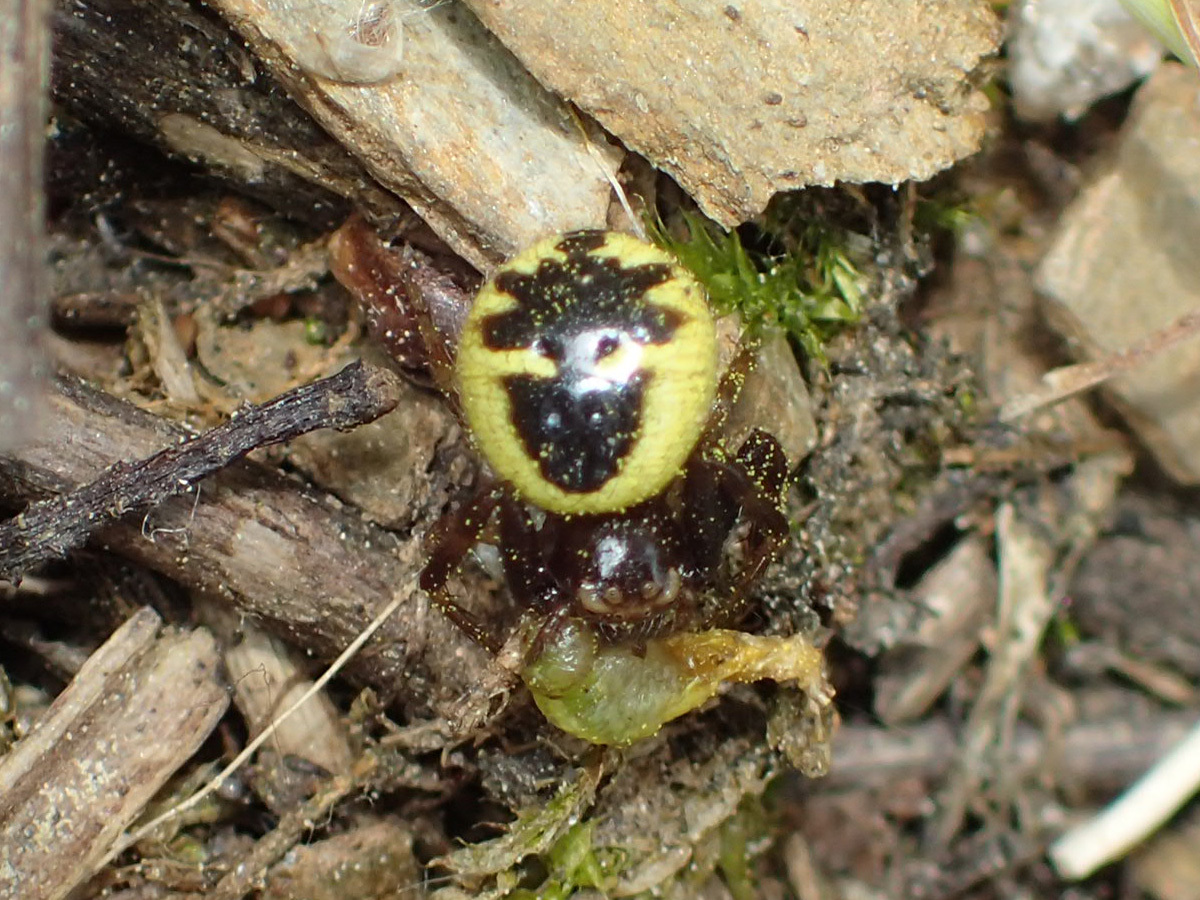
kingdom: Animalia
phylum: Arthropoda
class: Arachnida
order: Araneae
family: Thomisidae
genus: Synema
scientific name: Synema globosum
